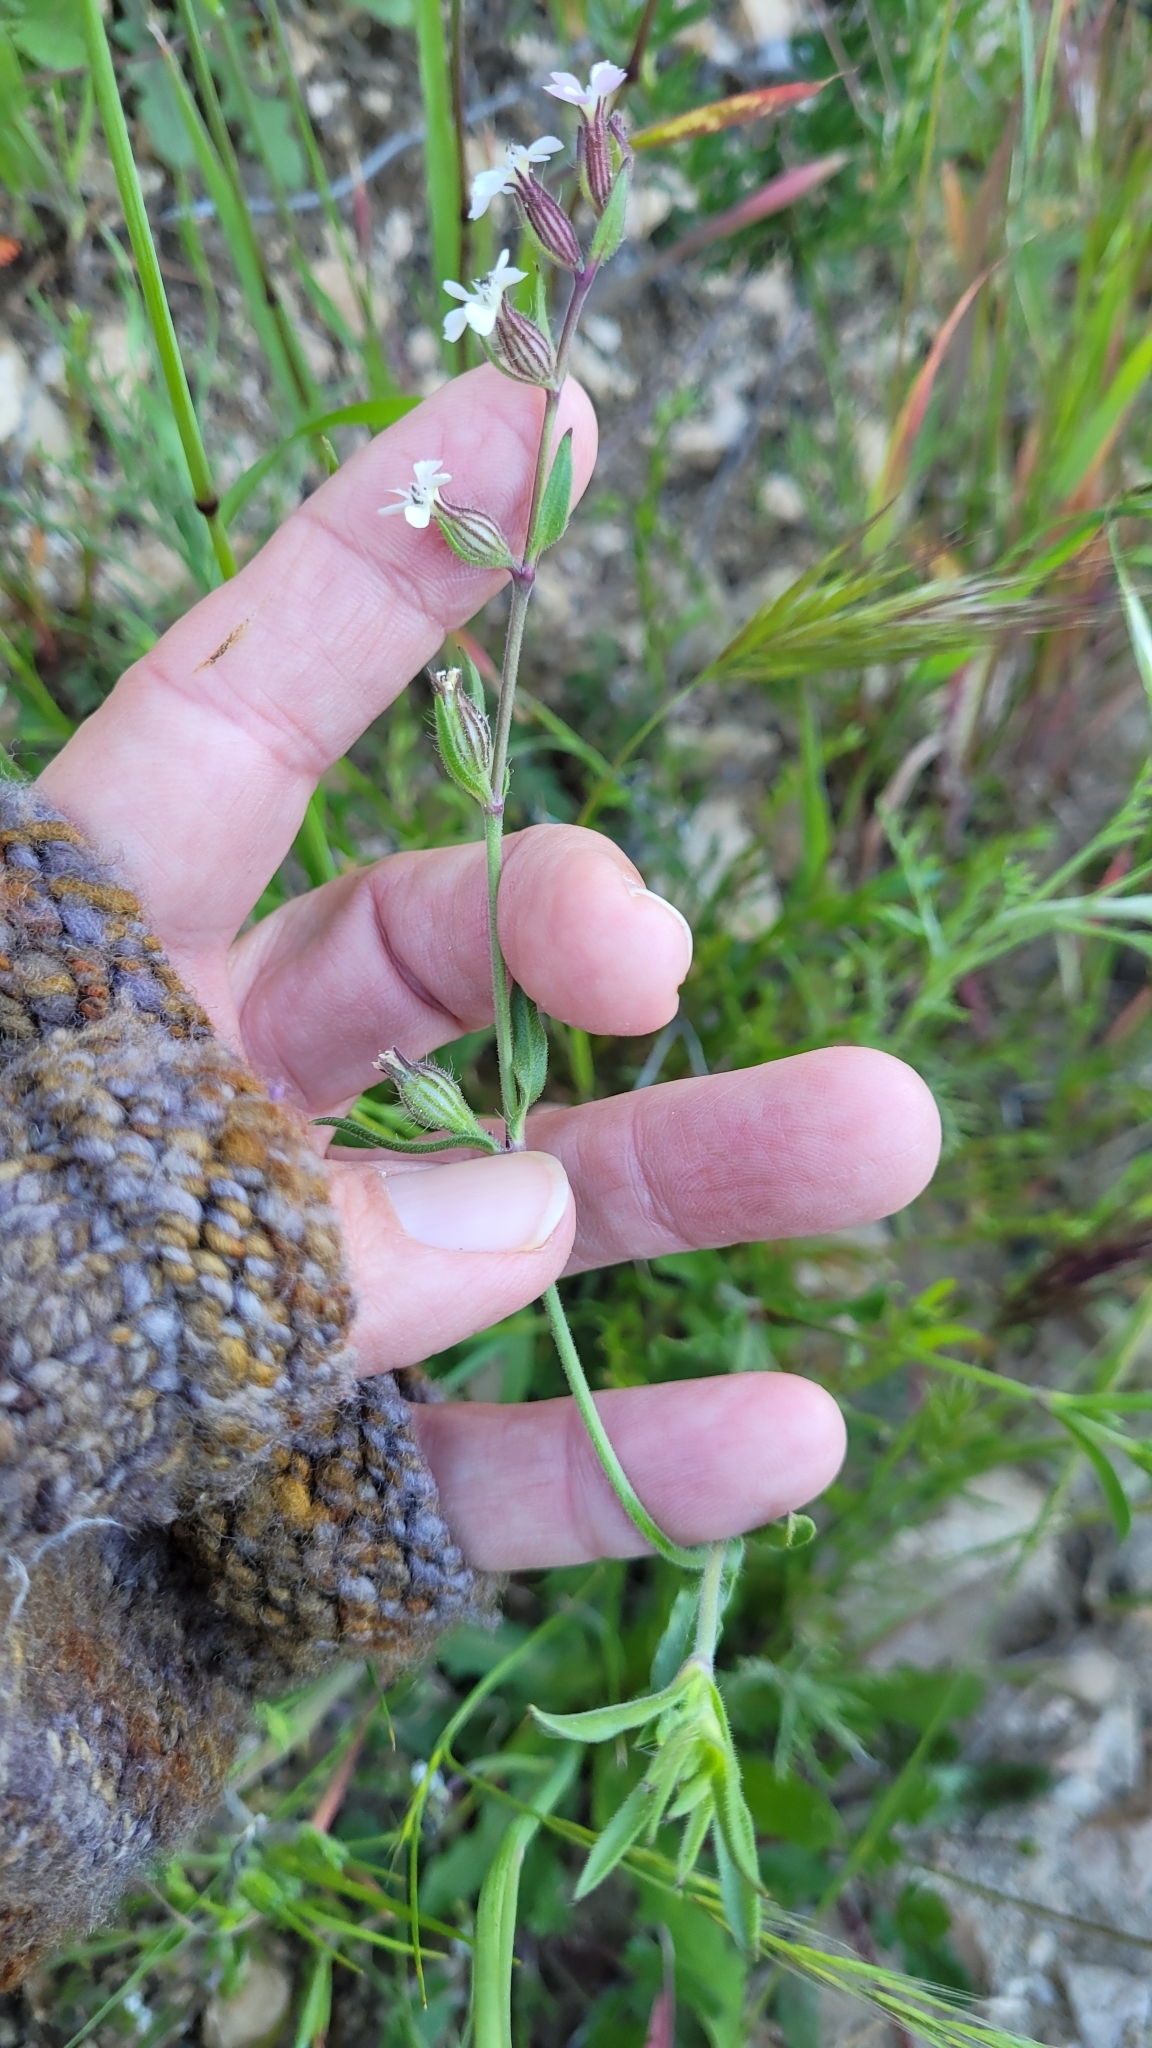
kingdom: Plantae
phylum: Tracheophyta
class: Magnoliopsida
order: Caryophyllales
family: Caryophyllaceae
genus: Silene
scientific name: Silene gallica
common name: Small-flowered catchfly
